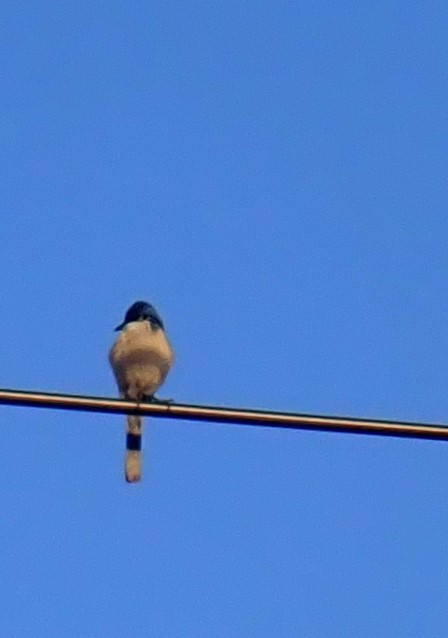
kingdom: Animalia
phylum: Chordata
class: Aves
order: Passeriformes
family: Corvidae
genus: Aphelocoma
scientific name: Aphelocoma californica
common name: California scrub-jay
